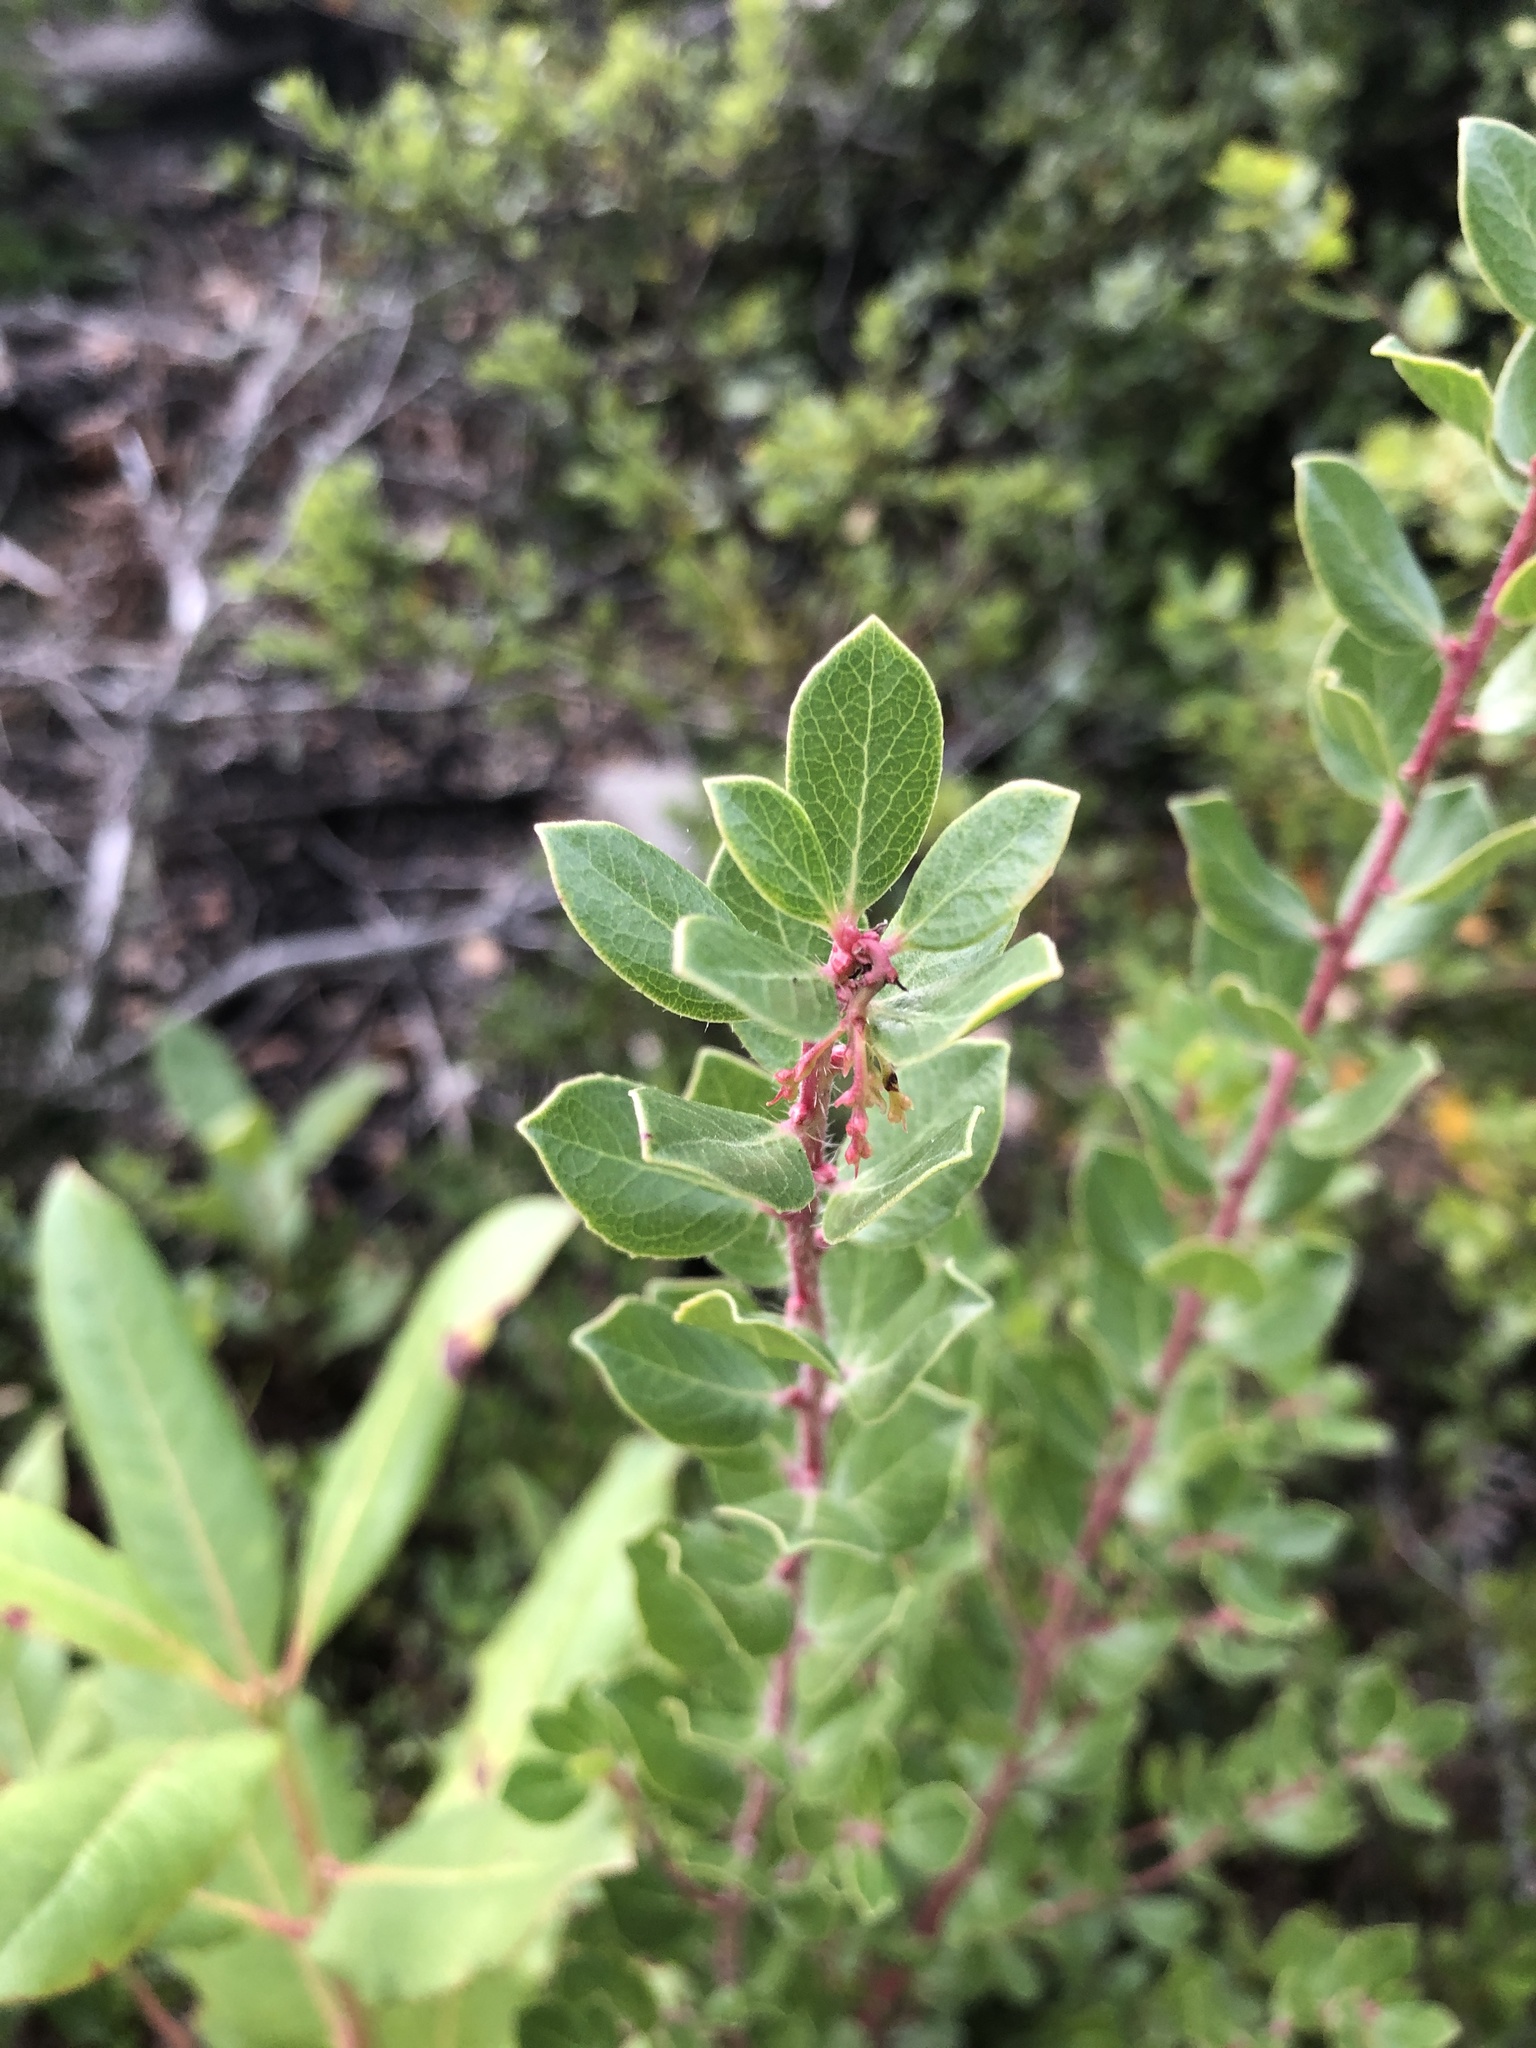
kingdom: Plantae
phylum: Tracheophyta
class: Magnoliopsida
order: Ericales
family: Ericaceae
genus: Arctostaphylos
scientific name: Arctostaphylos nummularia
